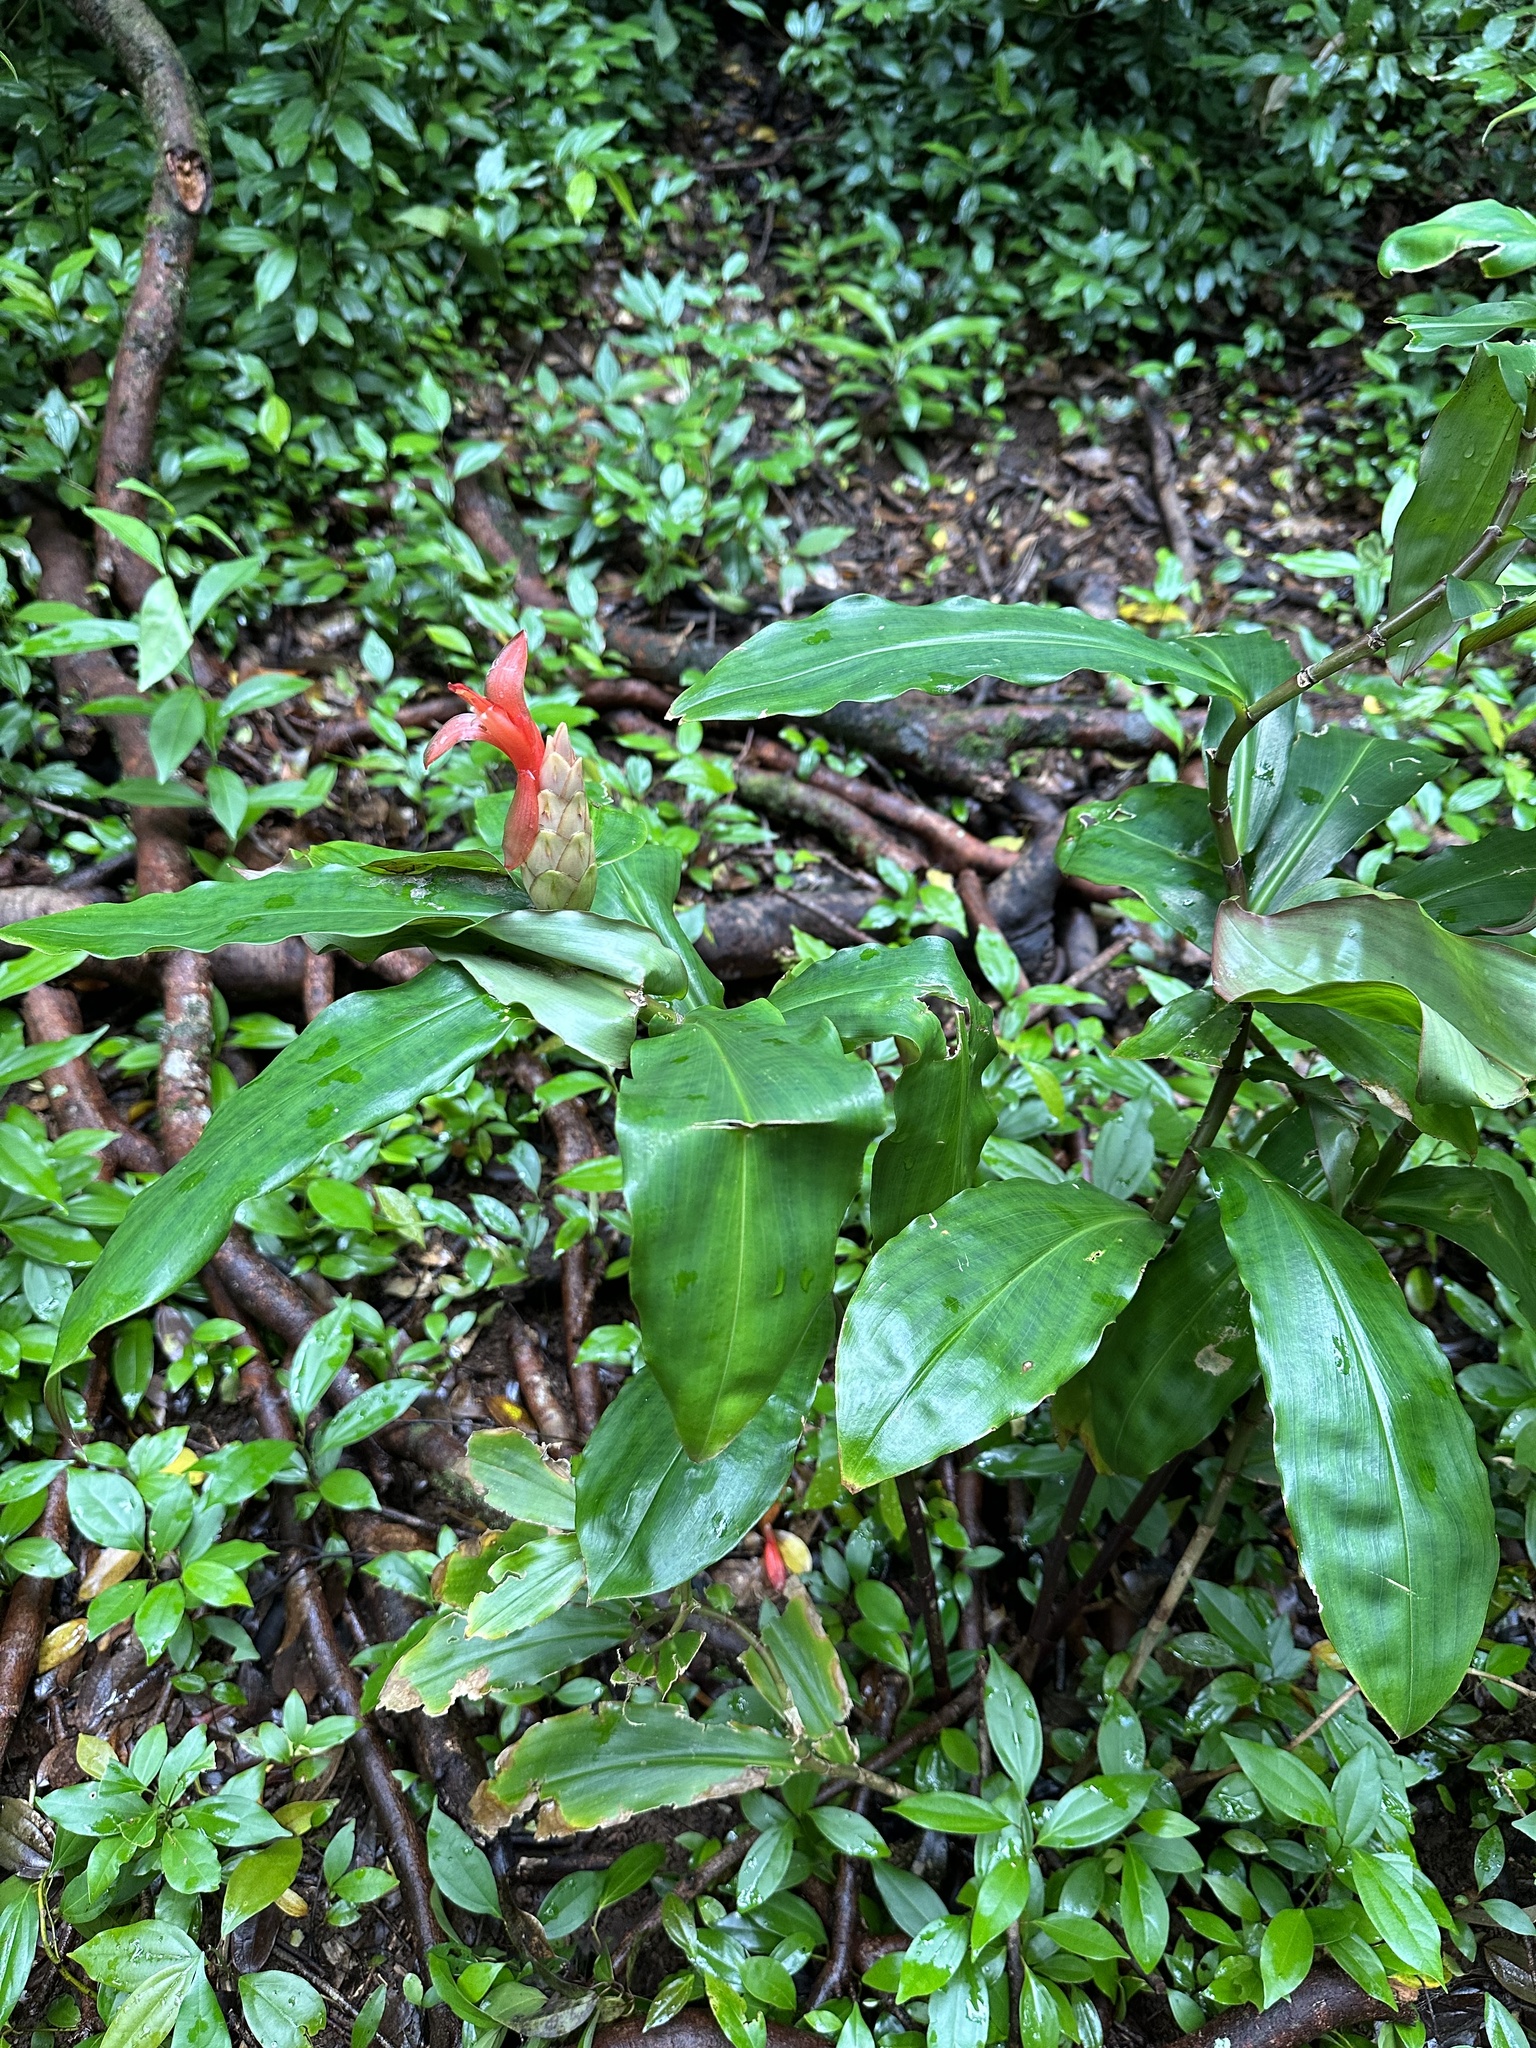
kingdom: Plantae
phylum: Tracheophyta
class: Liliopsida
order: Zingiberales
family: Costaceae
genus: Costus
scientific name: Costus pulverulentus
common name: Spiral ginger
